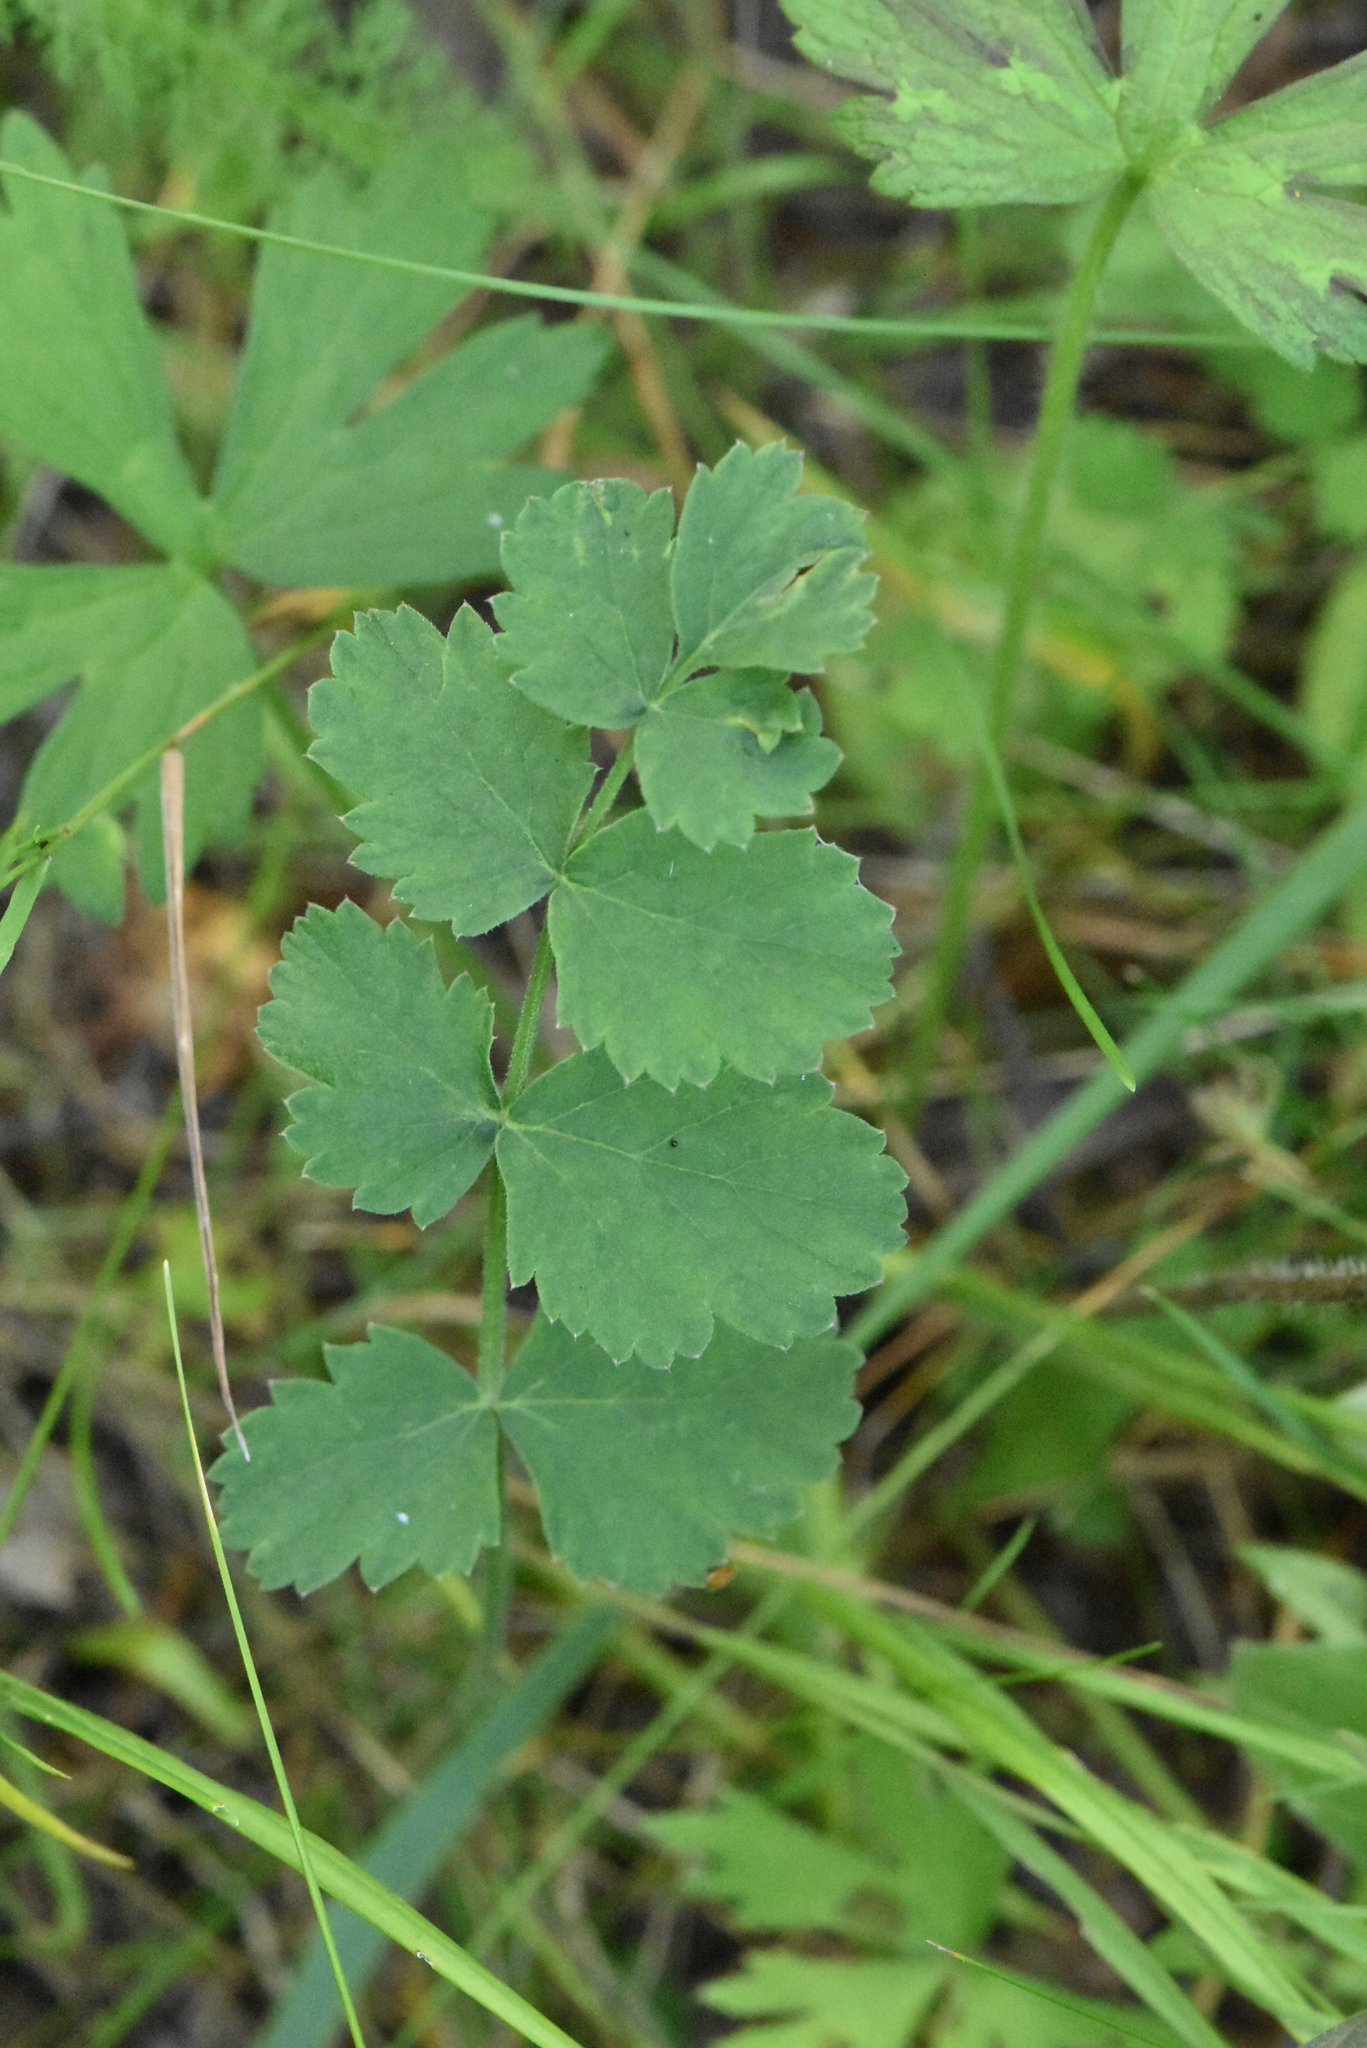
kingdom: Plantae
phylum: Tracheophyta
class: Magnoliopsida
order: Apiales
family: Apiaceae
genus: Pimpinella
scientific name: Pimpinella saxifraga
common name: Burnet-saxifrage
